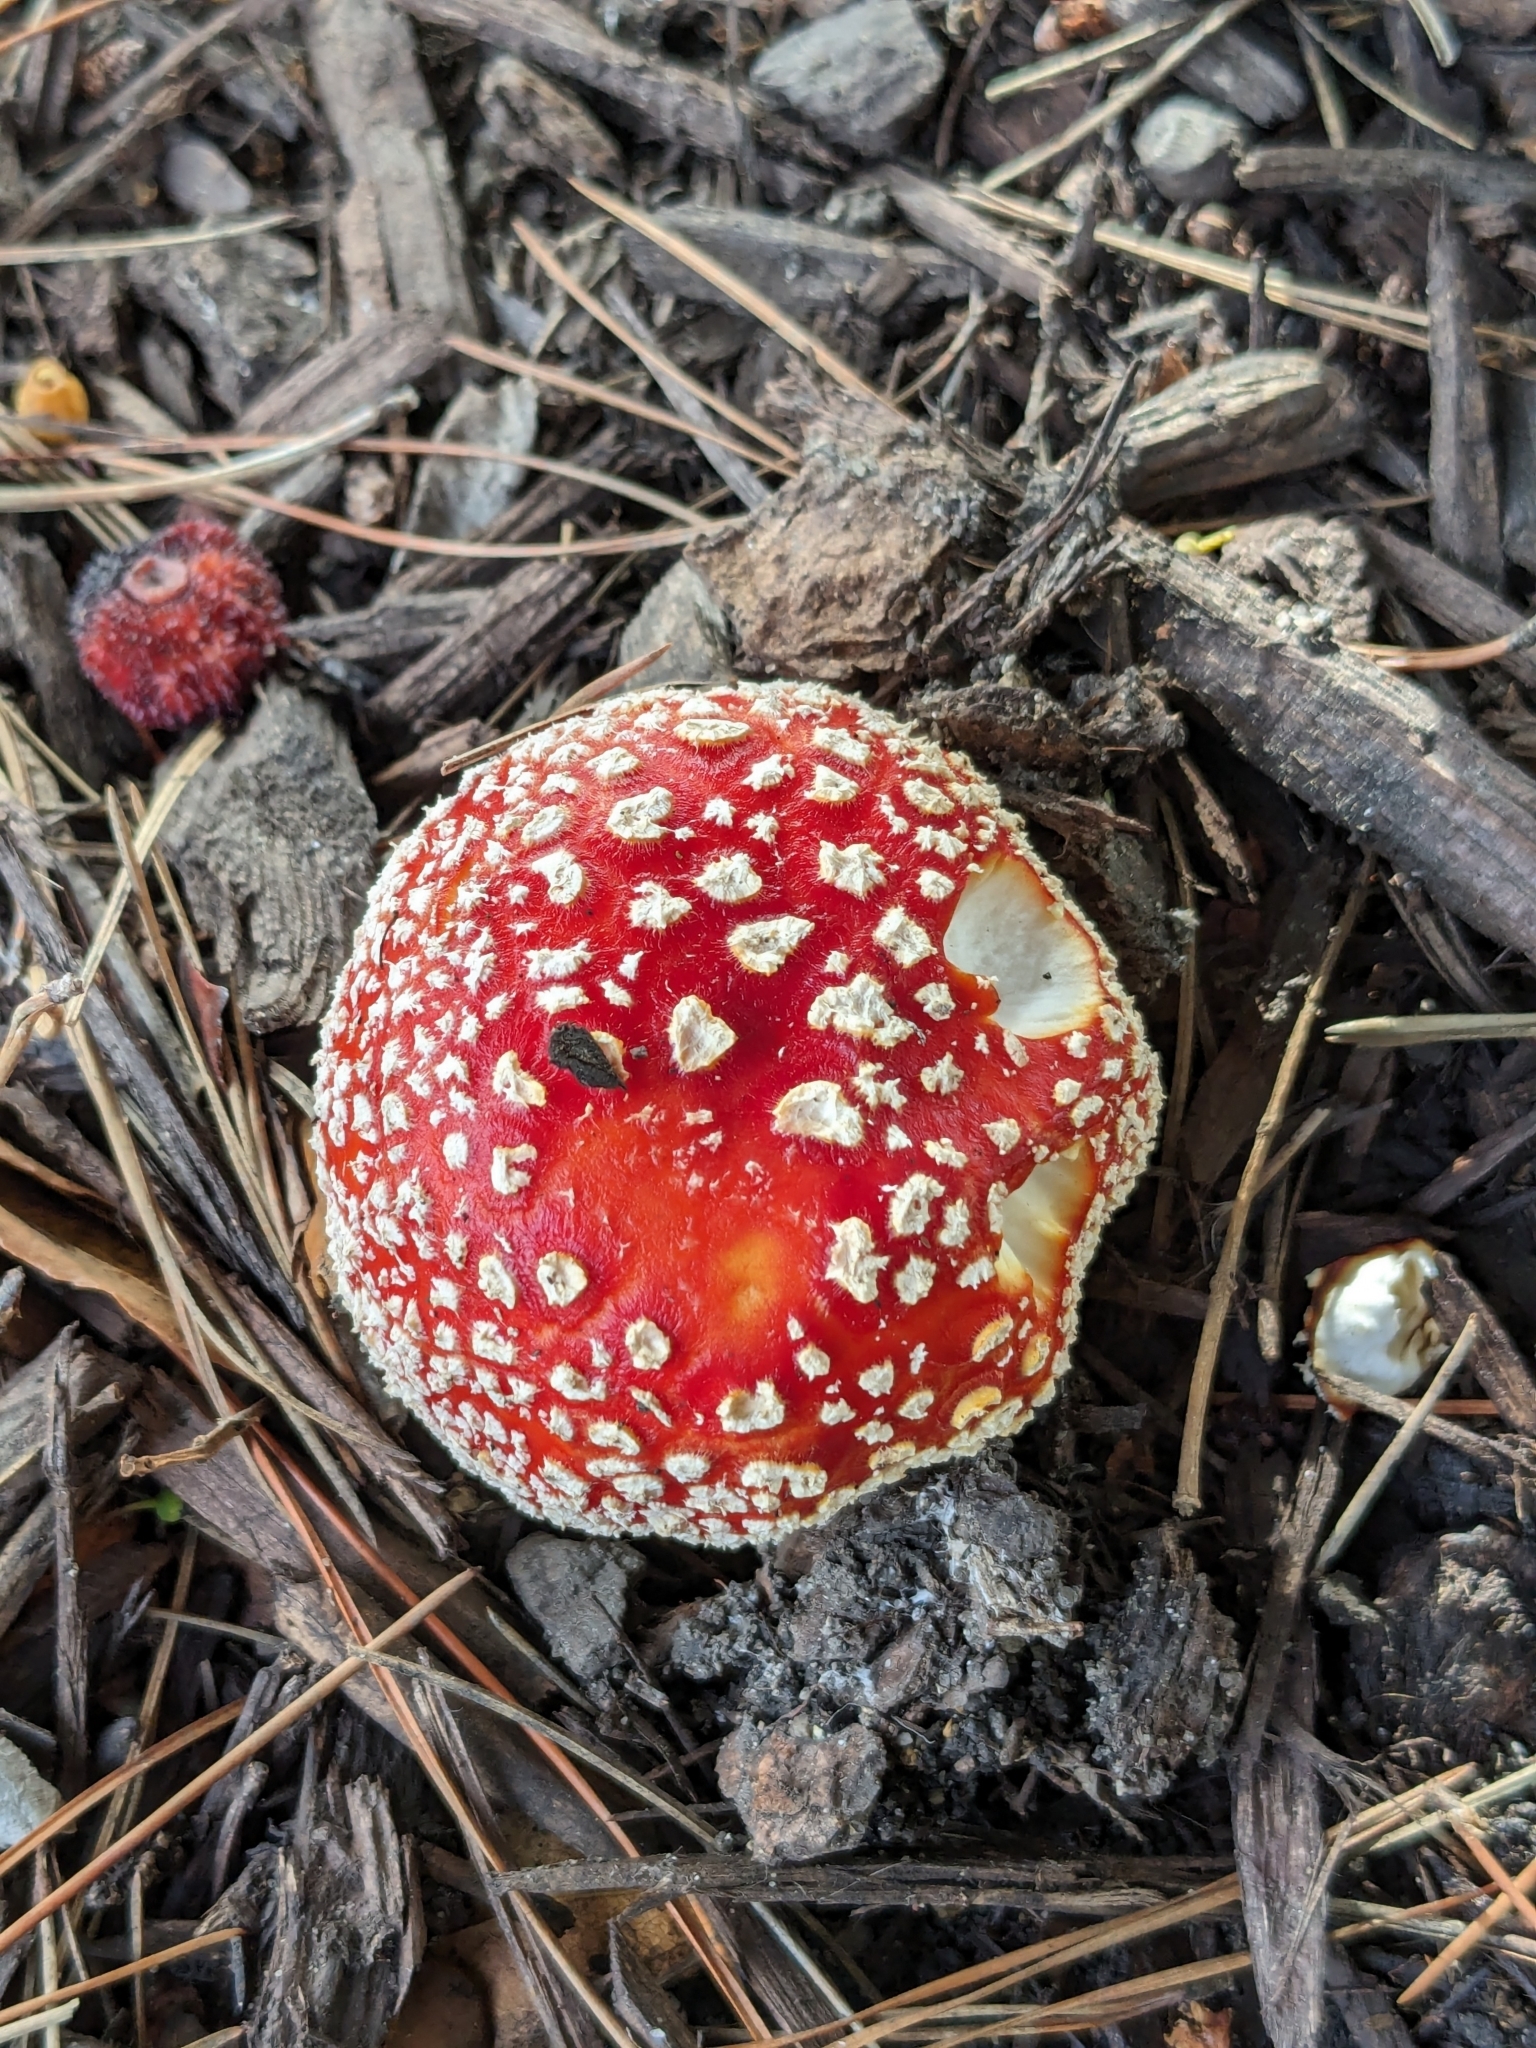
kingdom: Fungi
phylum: Basidiomycota
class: Agaricomycetes
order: Agaricales
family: Amanitaceae
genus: Amanita
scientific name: Amanita muscaria
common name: Fly agaric
